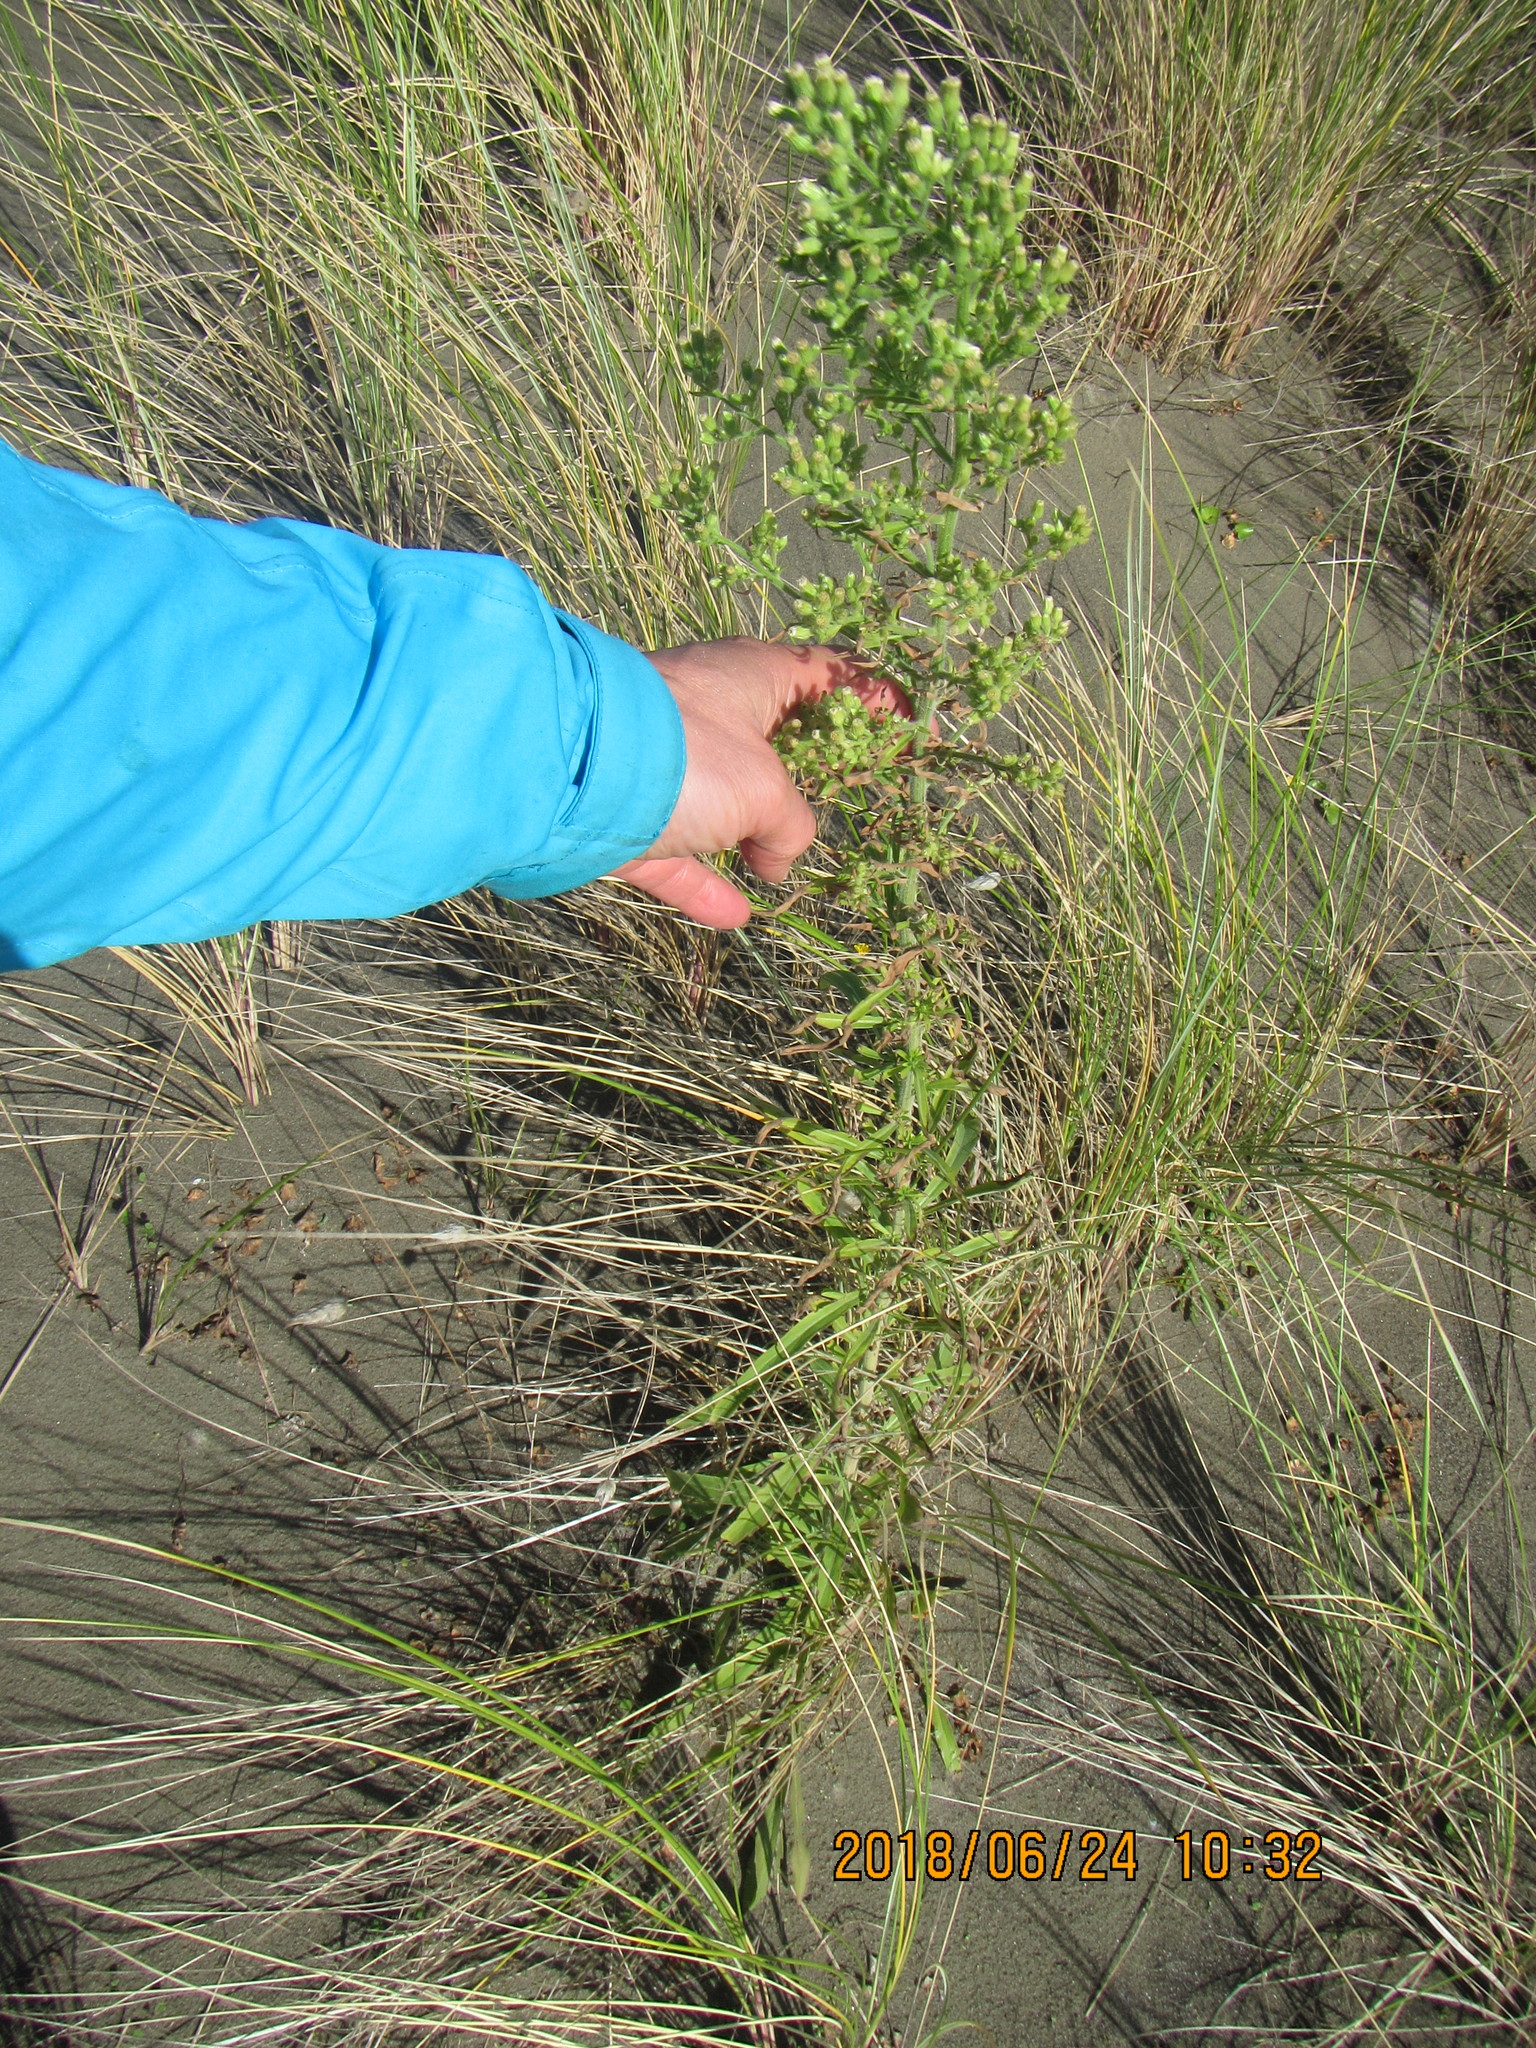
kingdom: Plantae
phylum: Tracheophyta
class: Magnoliopsida
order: Asterales
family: Asteraceae
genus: Erigeron
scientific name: Erigeron sumatrensis
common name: Daisy
